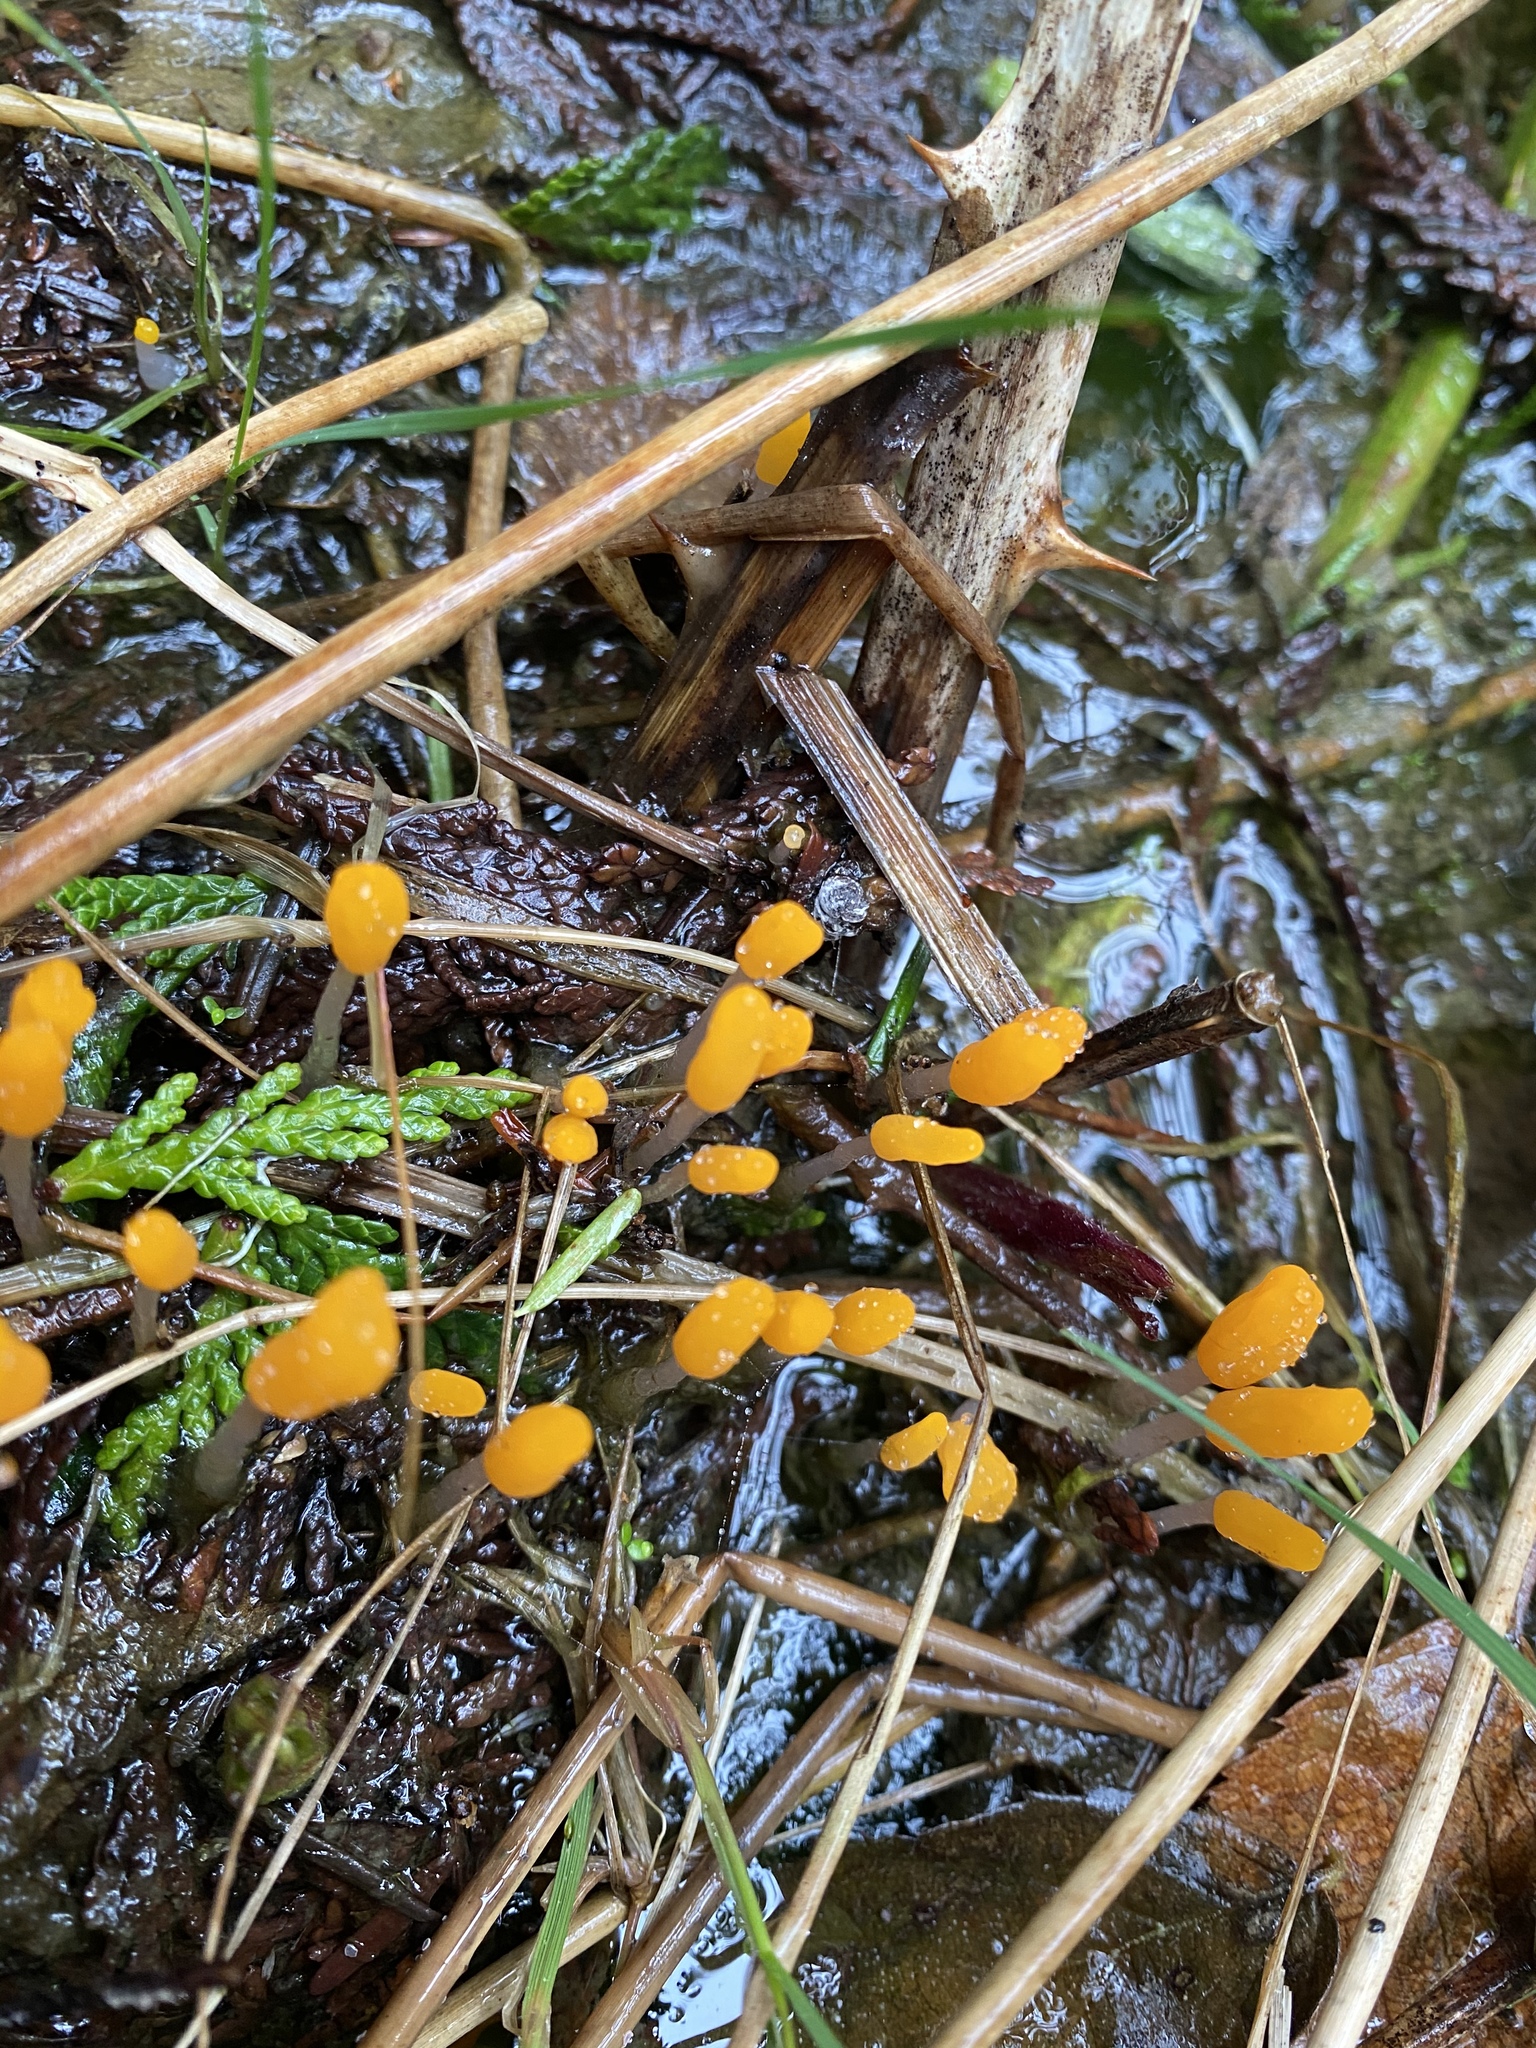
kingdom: Fungi
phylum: Ascomycota
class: Leotiomycetes
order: Helotiales
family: Sclerotiniaceae
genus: Mitrula
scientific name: Mitrula elegans
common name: Swamp beacon
